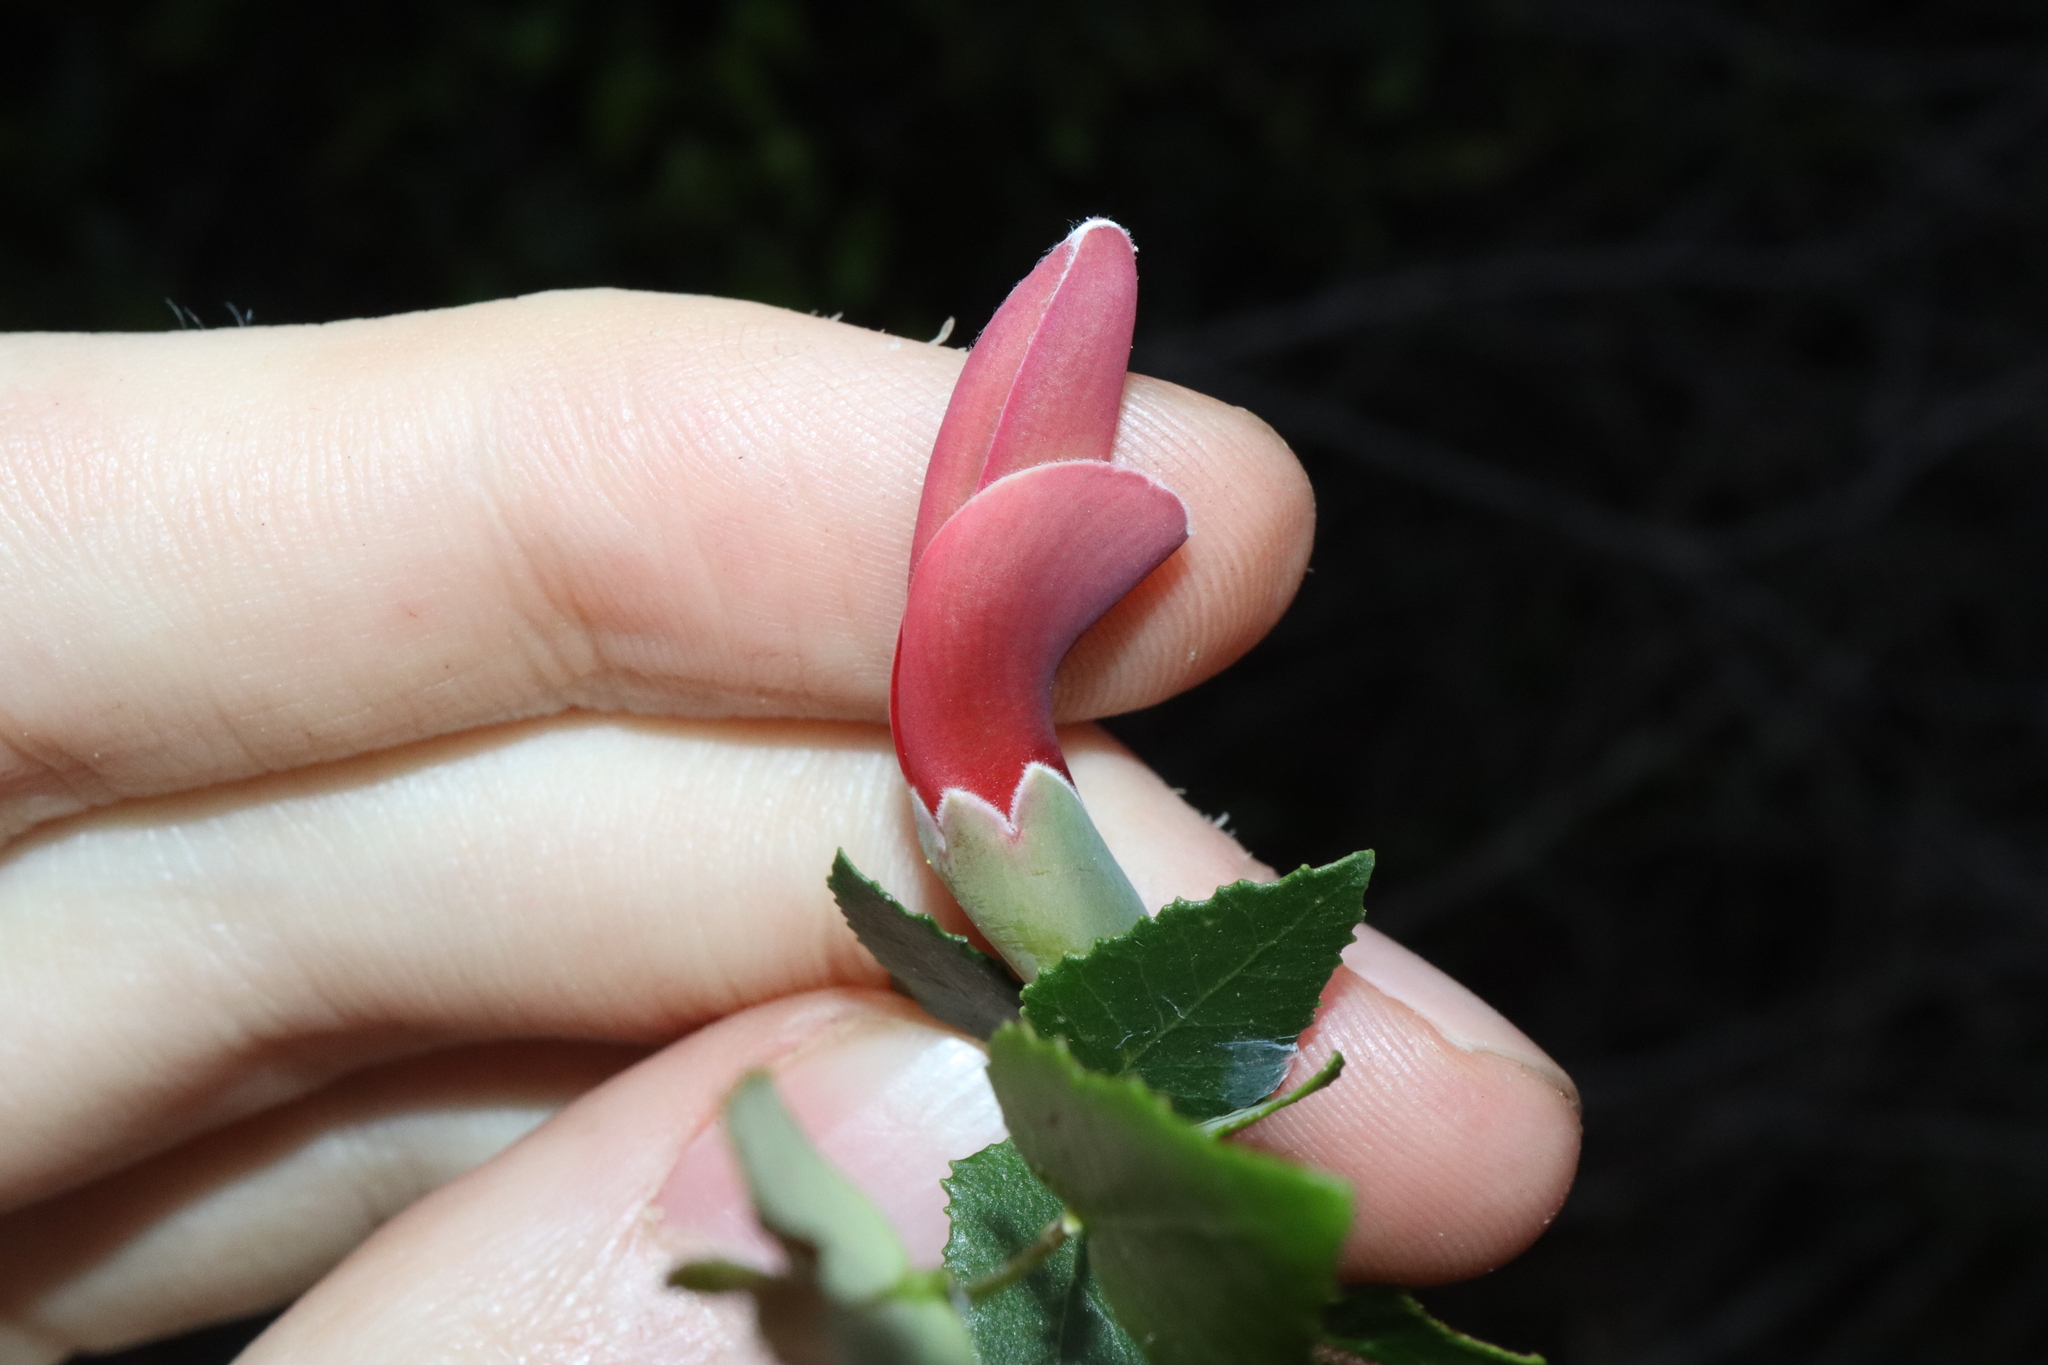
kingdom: Plantae
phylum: Tracheophyta
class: Magnoliopsida
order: Fabales
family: Fabaceae
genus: Bossiaea
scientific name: Bossiaea dentata
